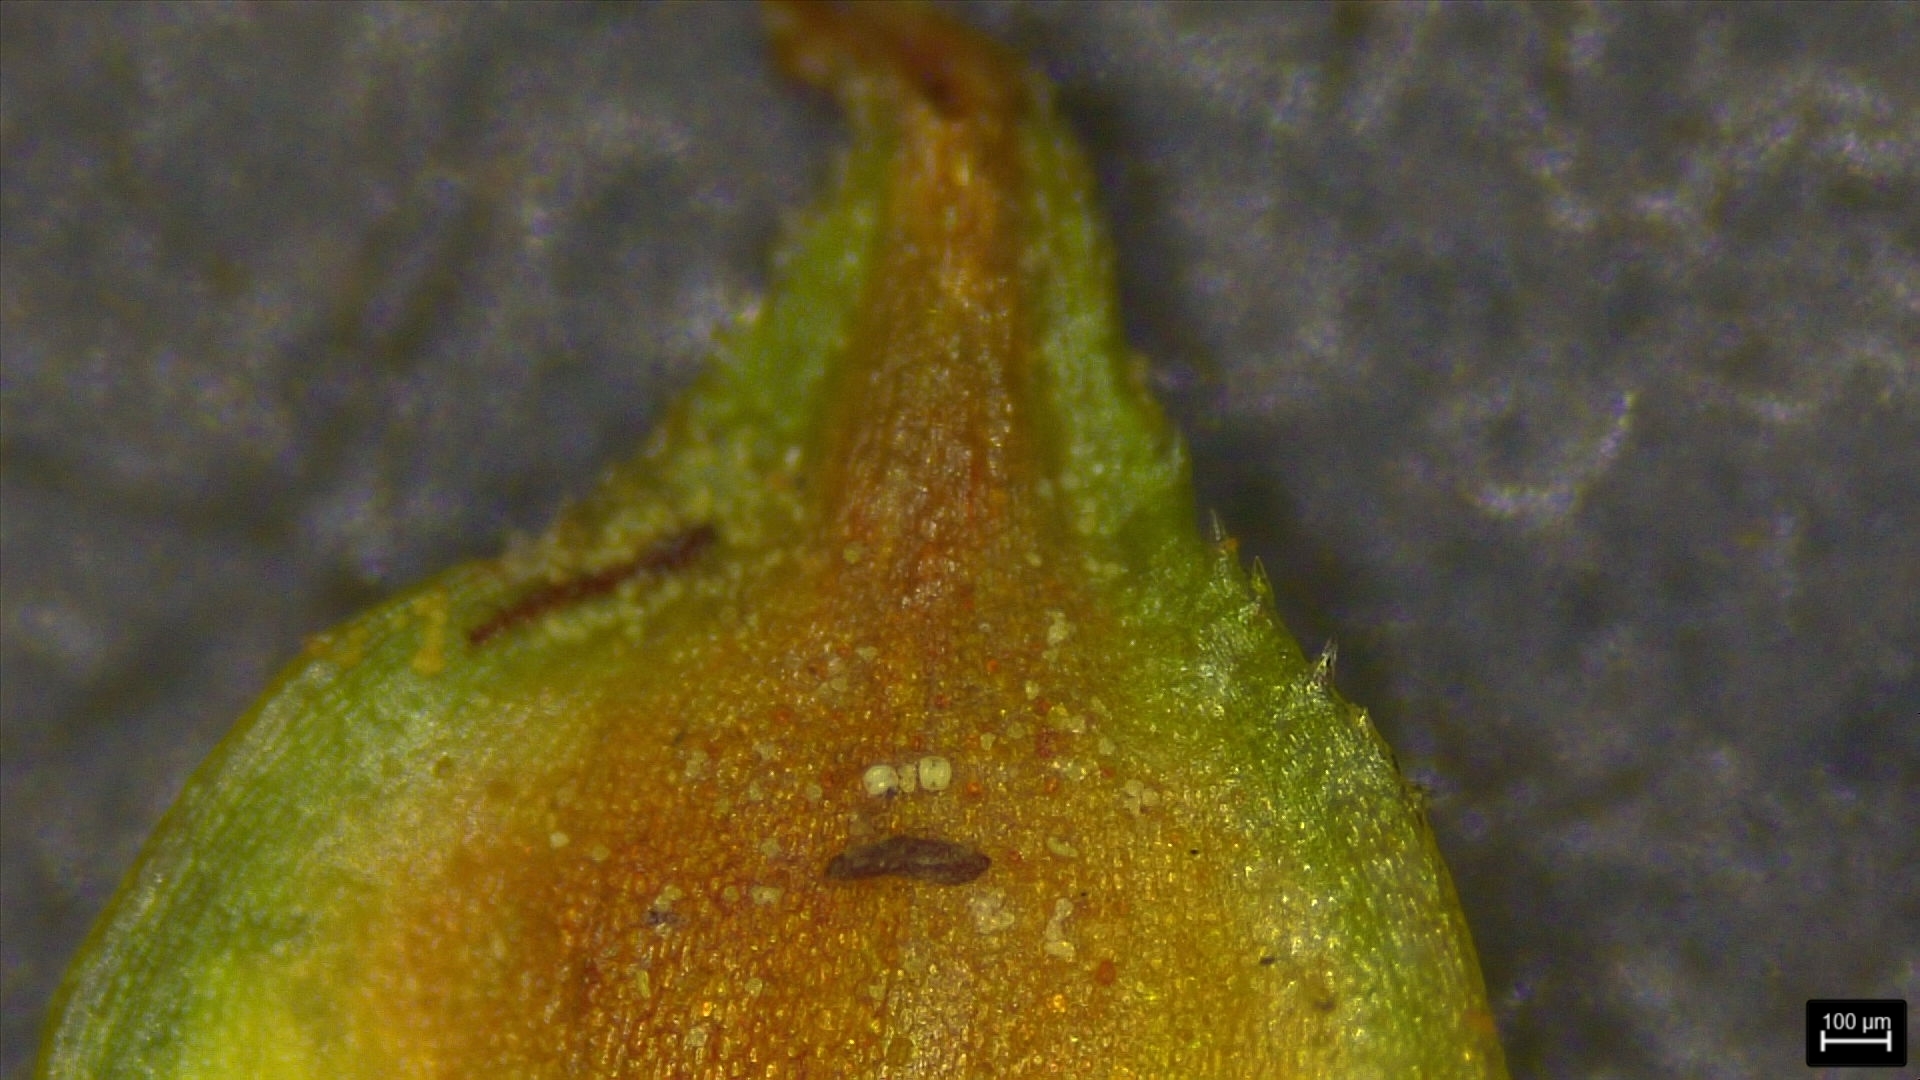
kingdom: Plantae
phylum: Tracheophyta
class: Liliopsida
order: Poales
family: Cyperaceae
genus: Carex
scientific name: Carex triangularis
